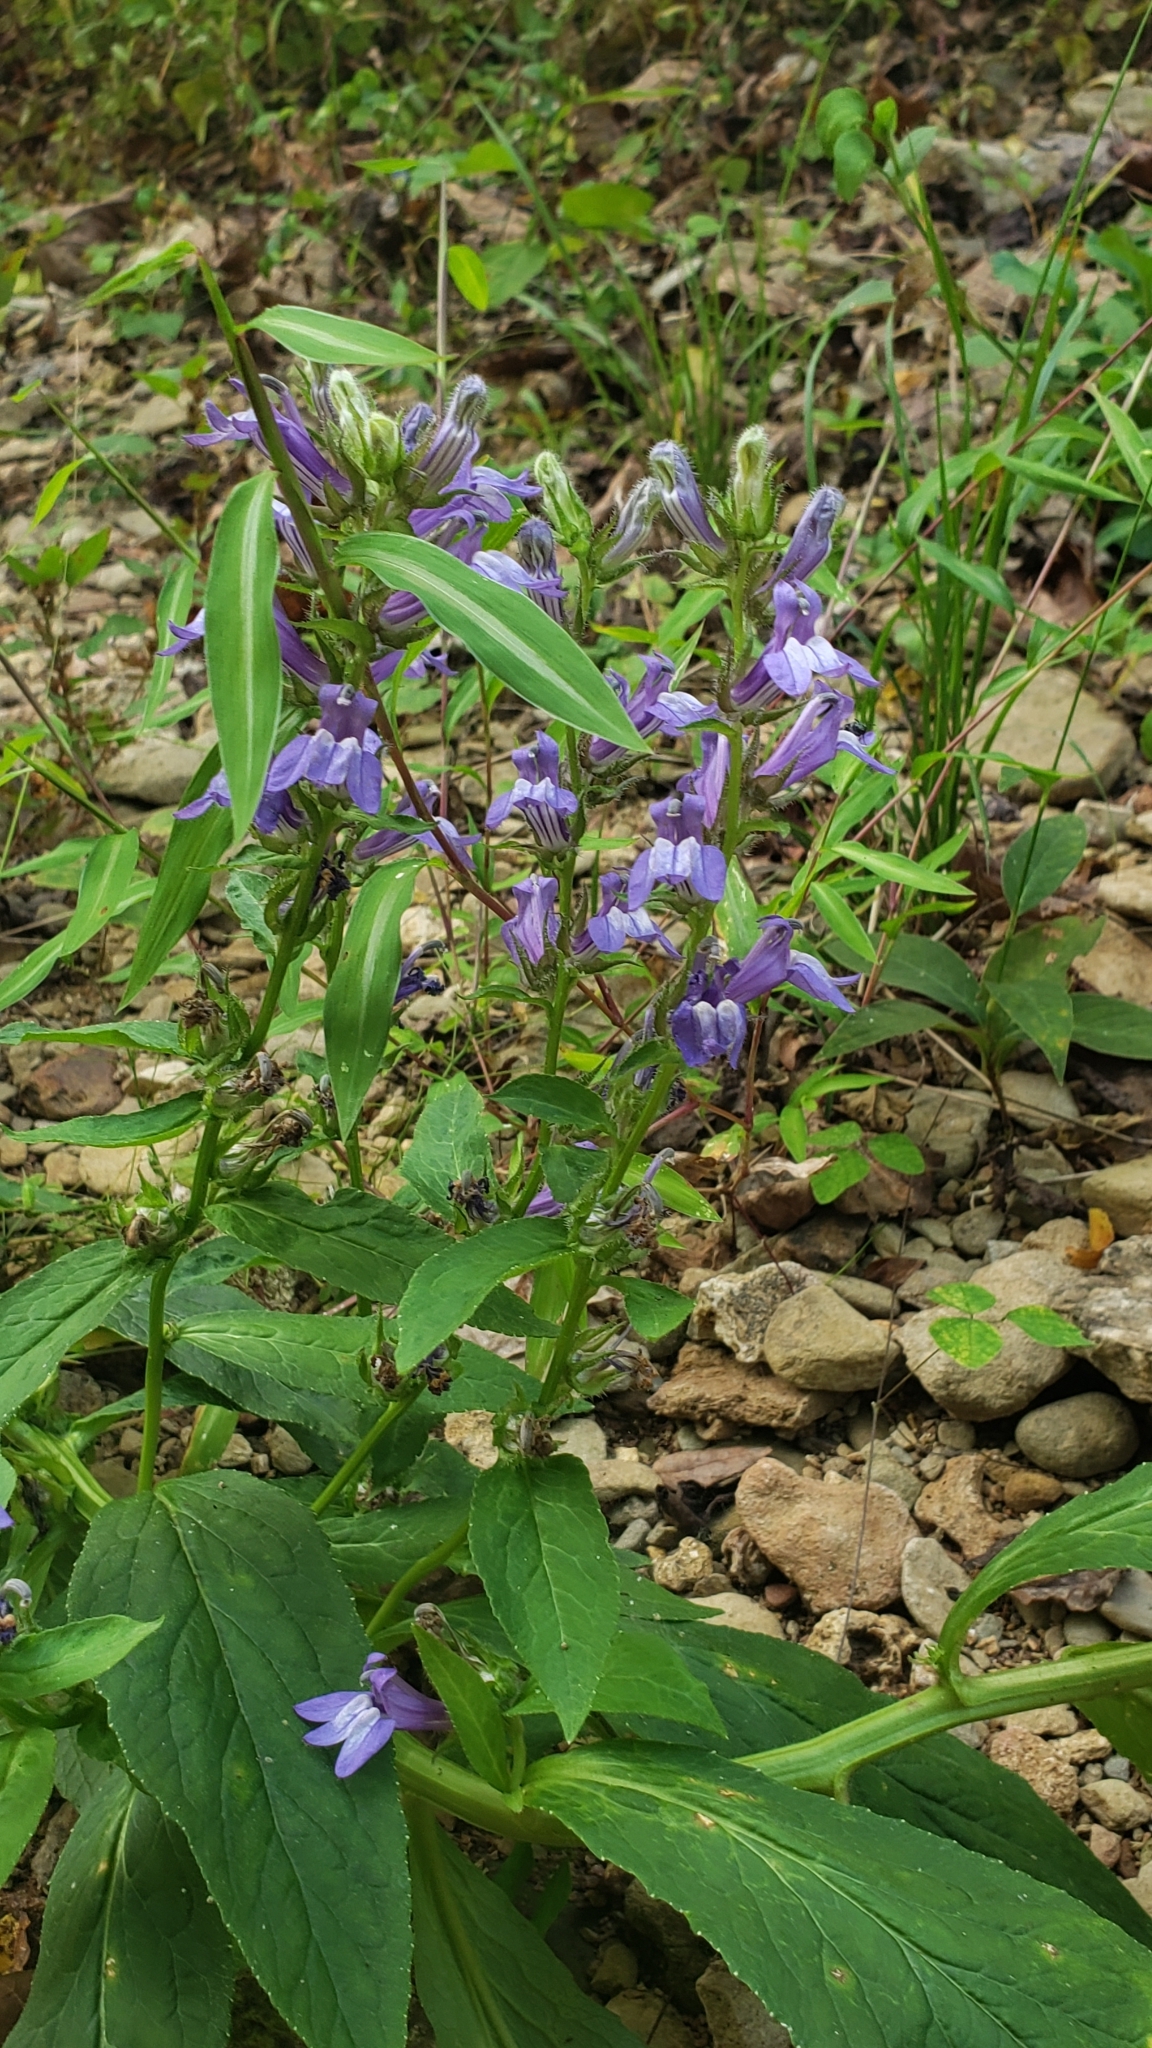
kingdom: Plantae
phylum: Tracheophyta
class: Magnoliopsida
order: Asterales
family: Campanulaceae
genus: Lobelia
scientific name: Lobelia siphilitica
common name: Great lobelia
